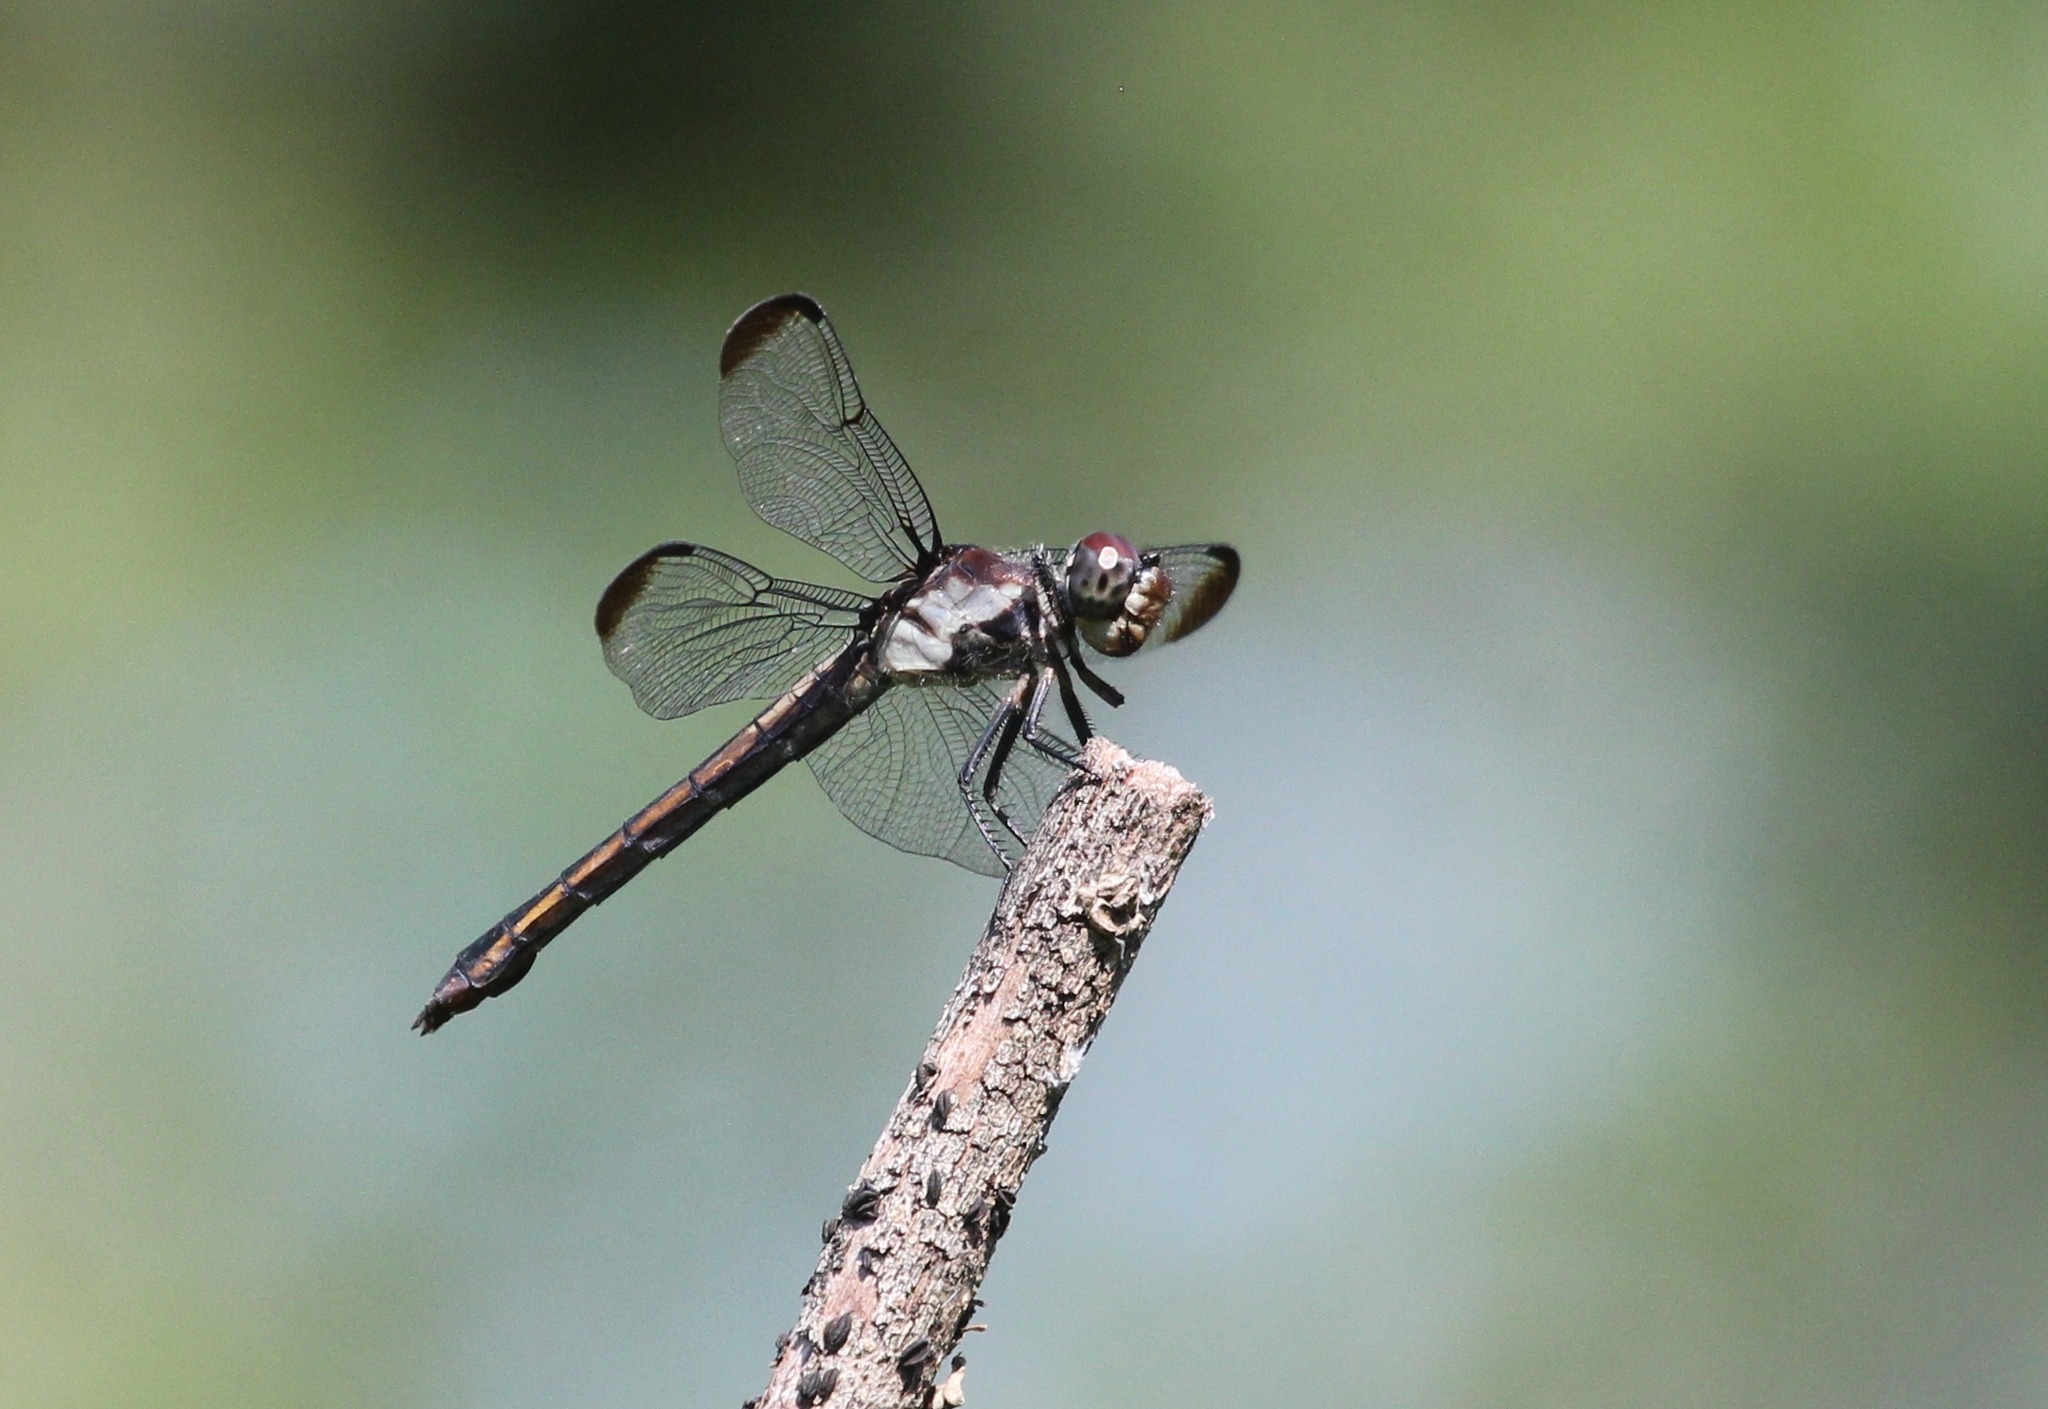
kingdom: Animalia
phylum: Arthropoda
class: Insecta
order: Odonata
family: Libellulidae
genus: Libellula
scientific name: Libellula incesta
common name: Slaty skimmer
